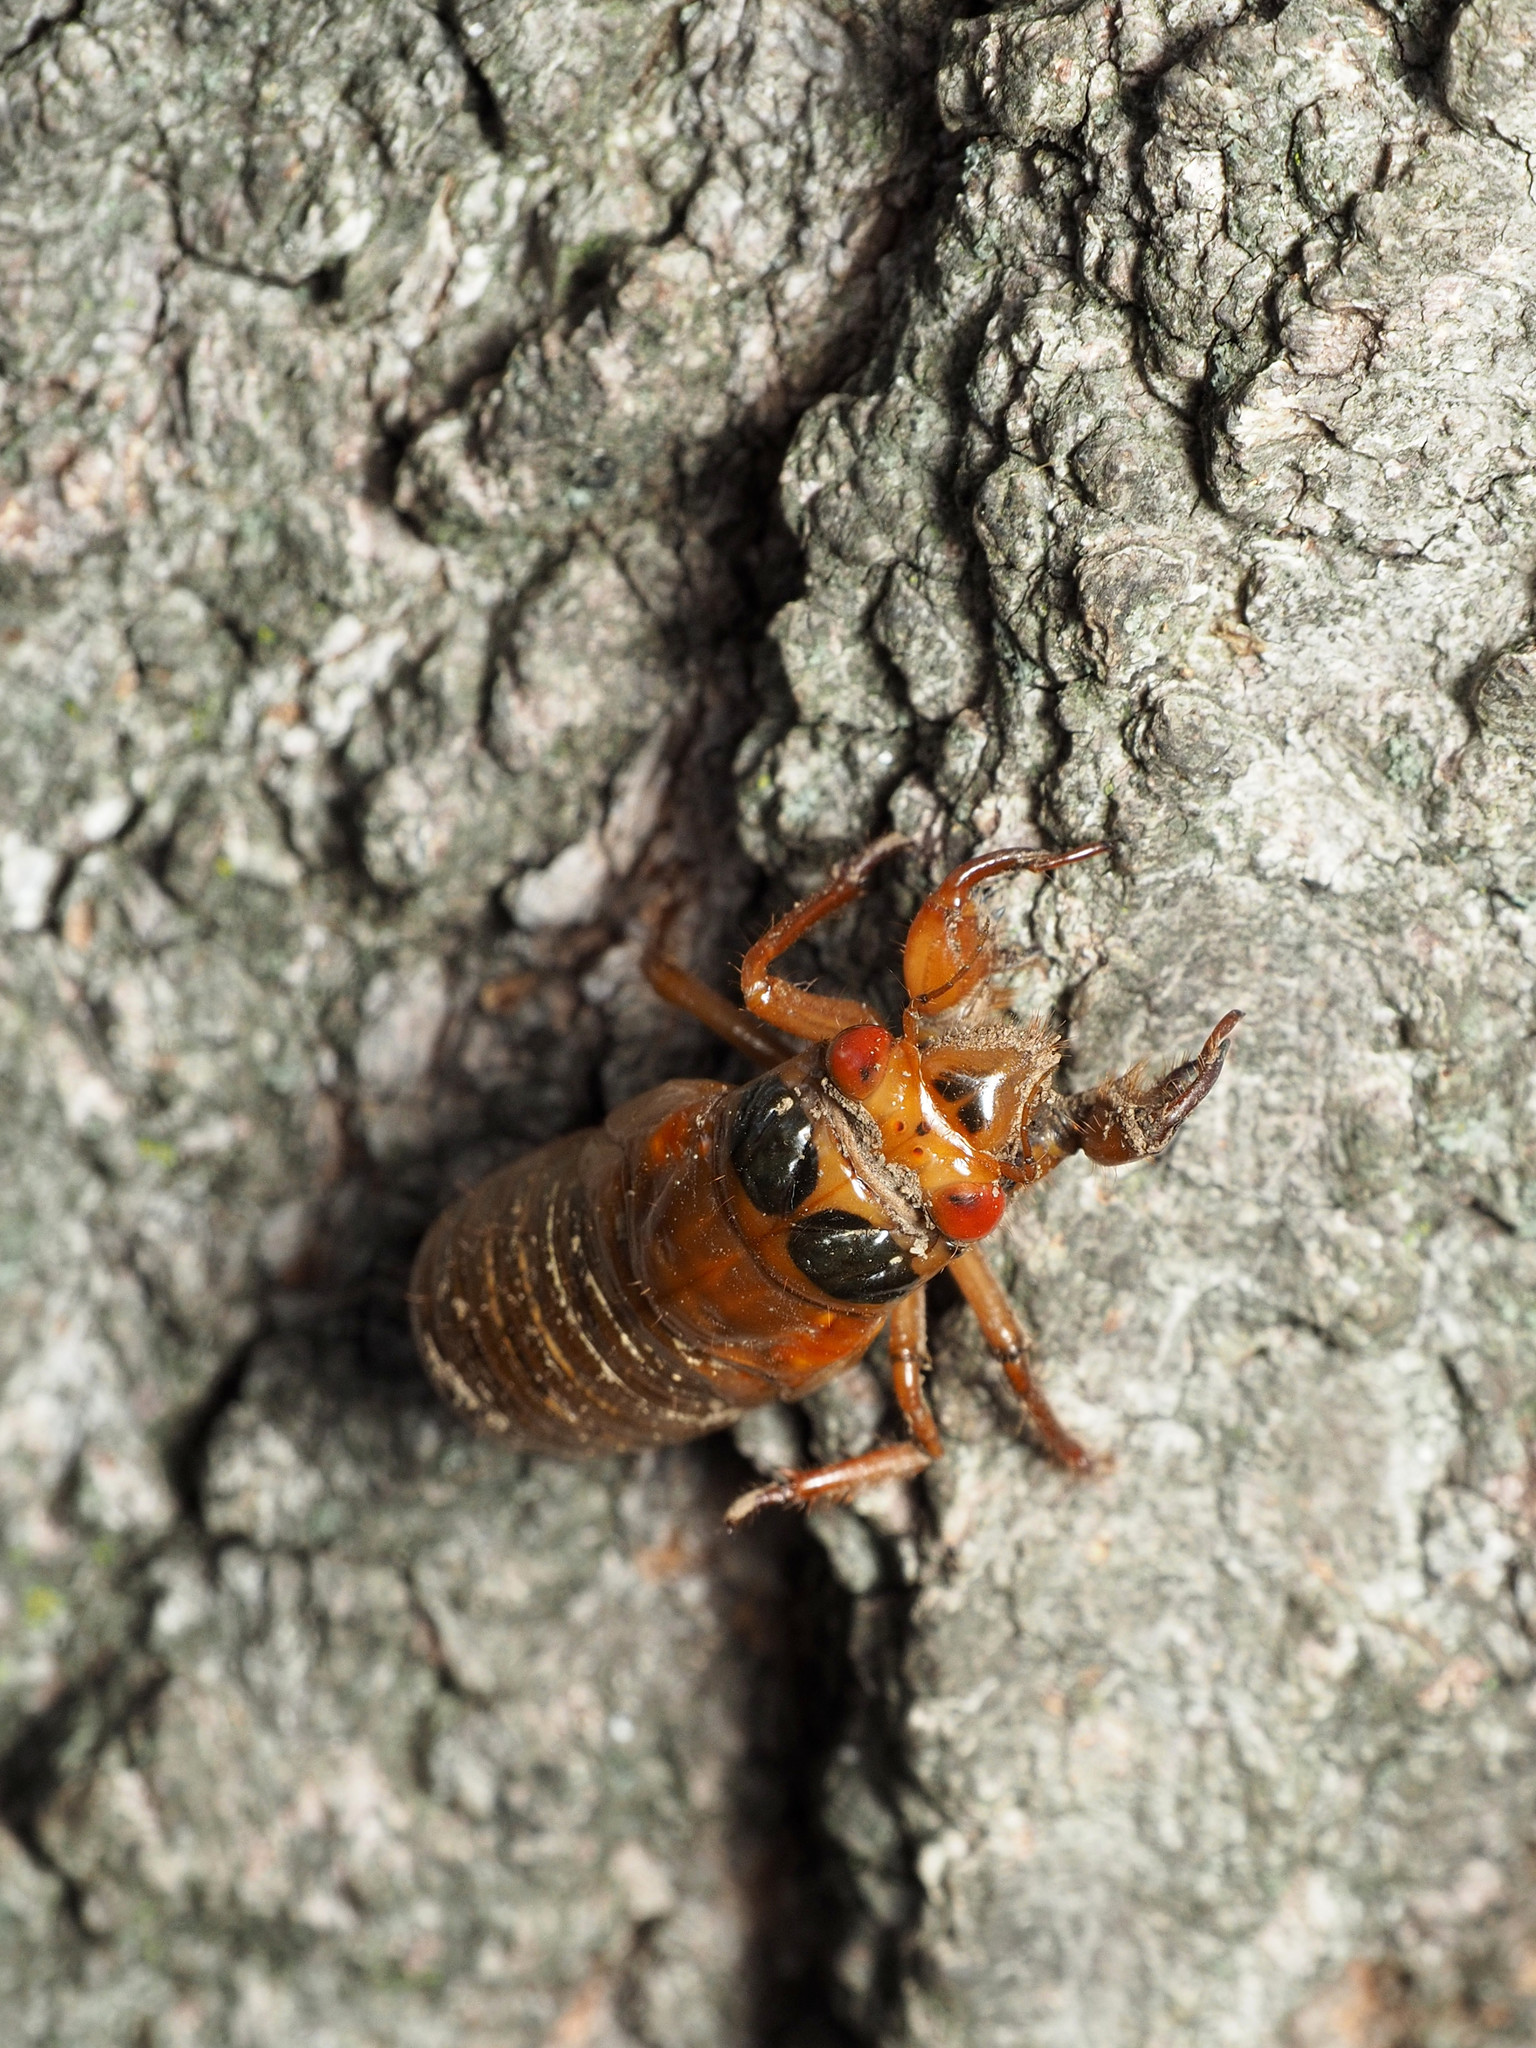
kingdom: Animalia
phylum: Arthropoda
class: Insecta
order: Hemiptera
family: Cicadidae
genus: Magicicada
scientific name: Magicicada
